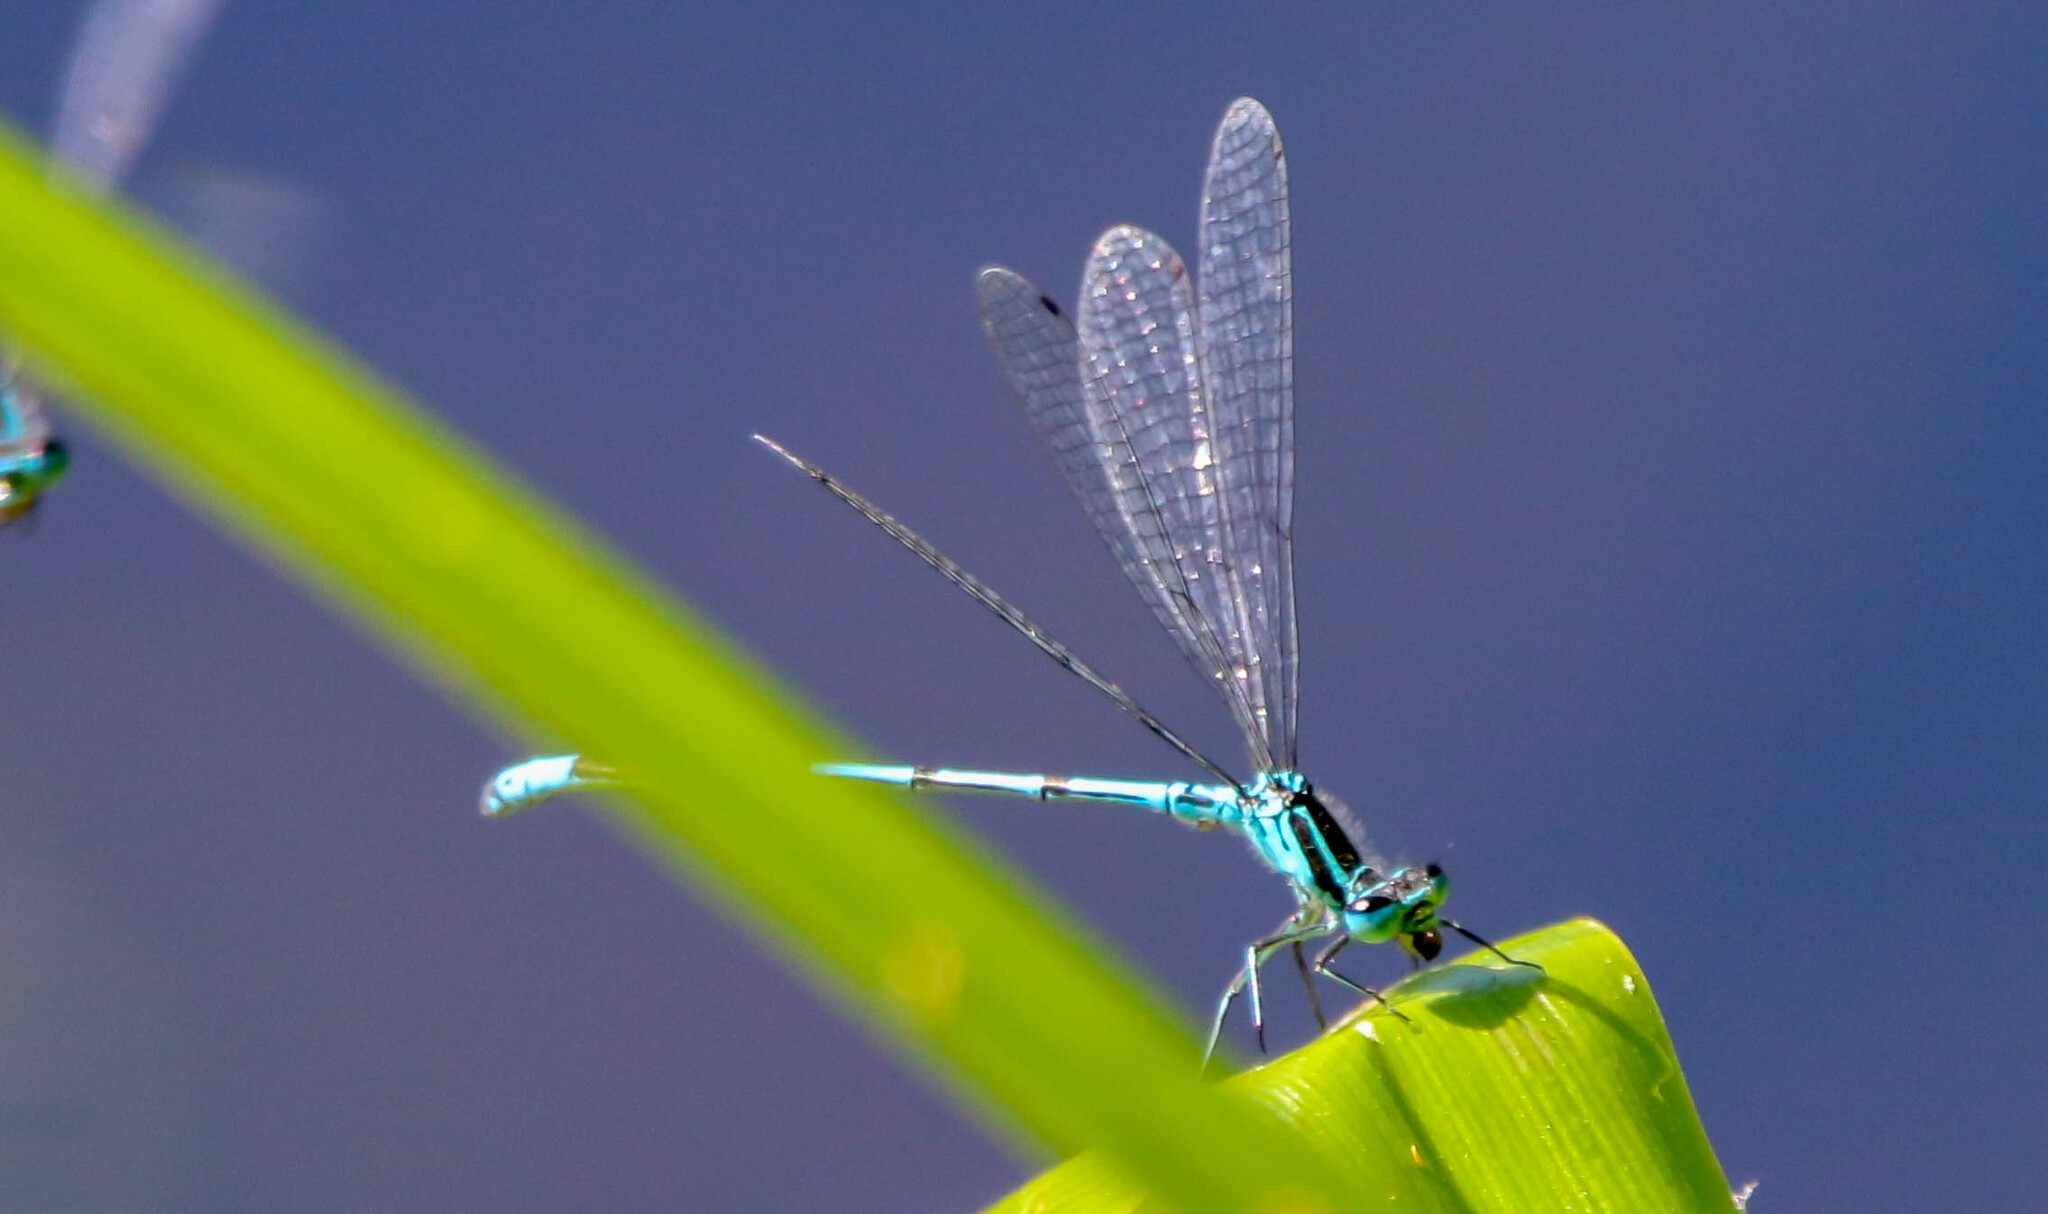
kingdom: Animalia
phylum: Arthropoda
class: Insecta
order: Odonata
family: Coenagrionidae
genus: Coenagrion
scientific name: Coenagrion puella
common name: Azure damselfly
